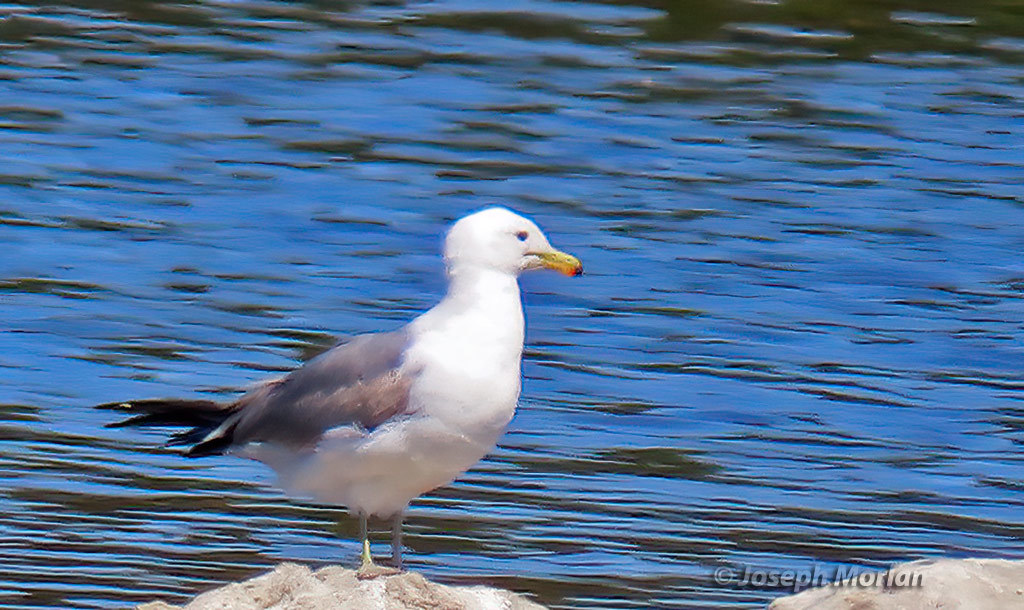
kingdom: Animalia
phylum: Chordata
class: Aves
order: Charadriiformes
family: Laridae
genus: Larus
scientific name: Larus californicus
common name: California gull
